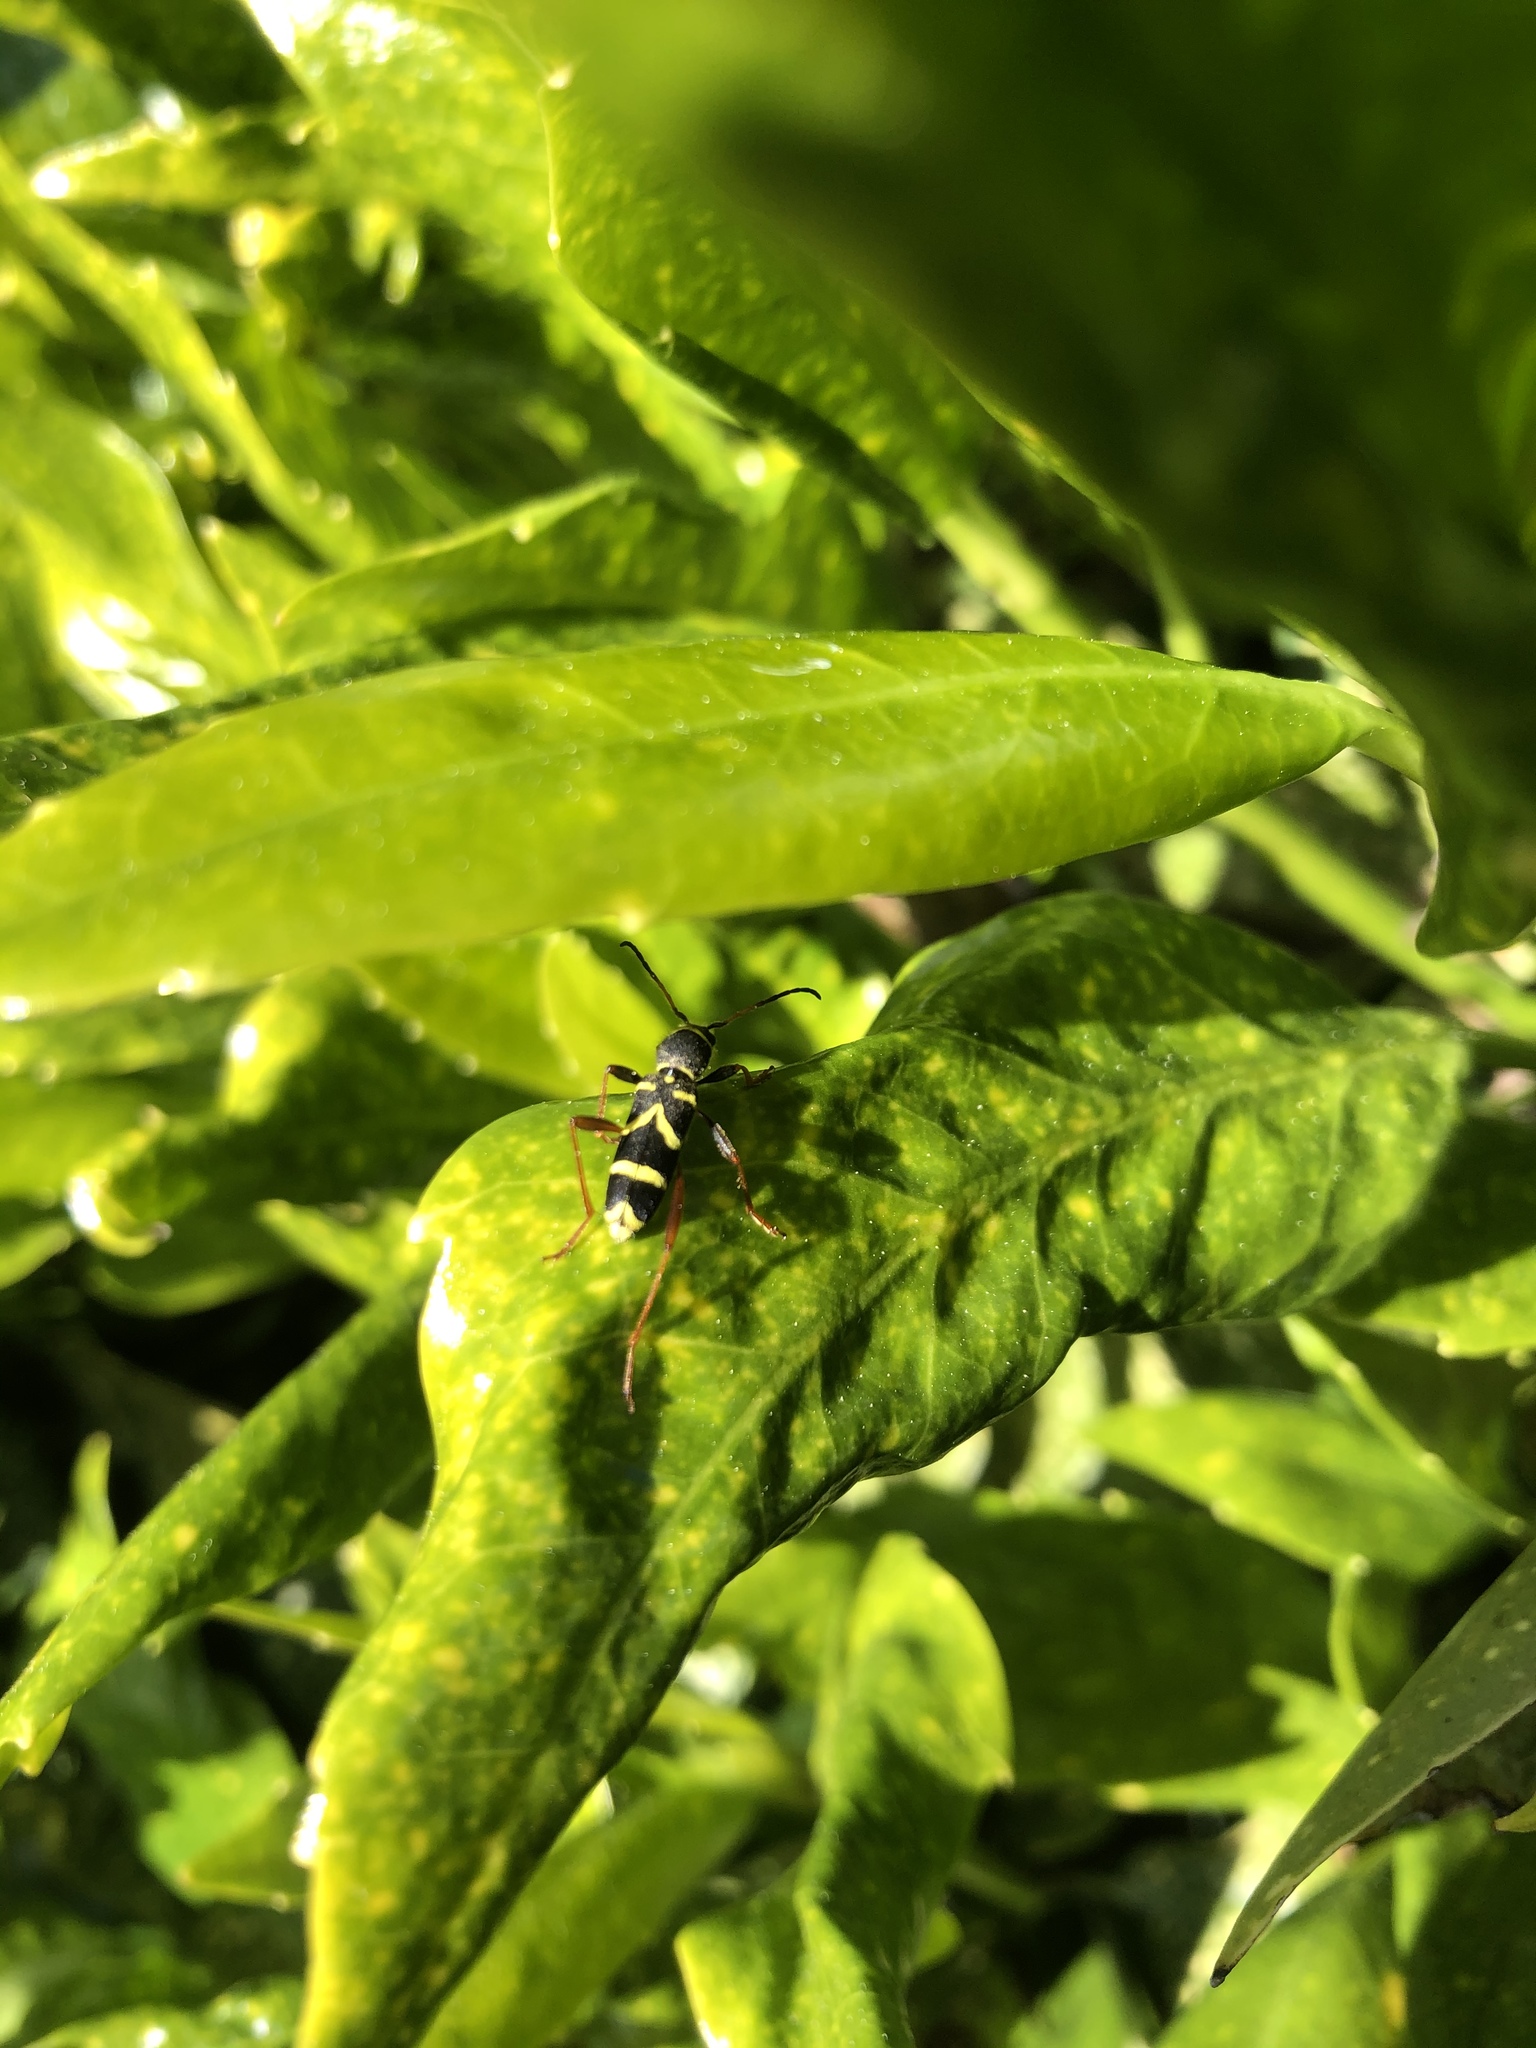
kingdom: Animalia
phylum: Arthropoda
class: Insecta
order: Coleoptera
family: Cerambycidae
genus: Clytus
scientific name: Clytus arietis
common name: Wasp beetle
